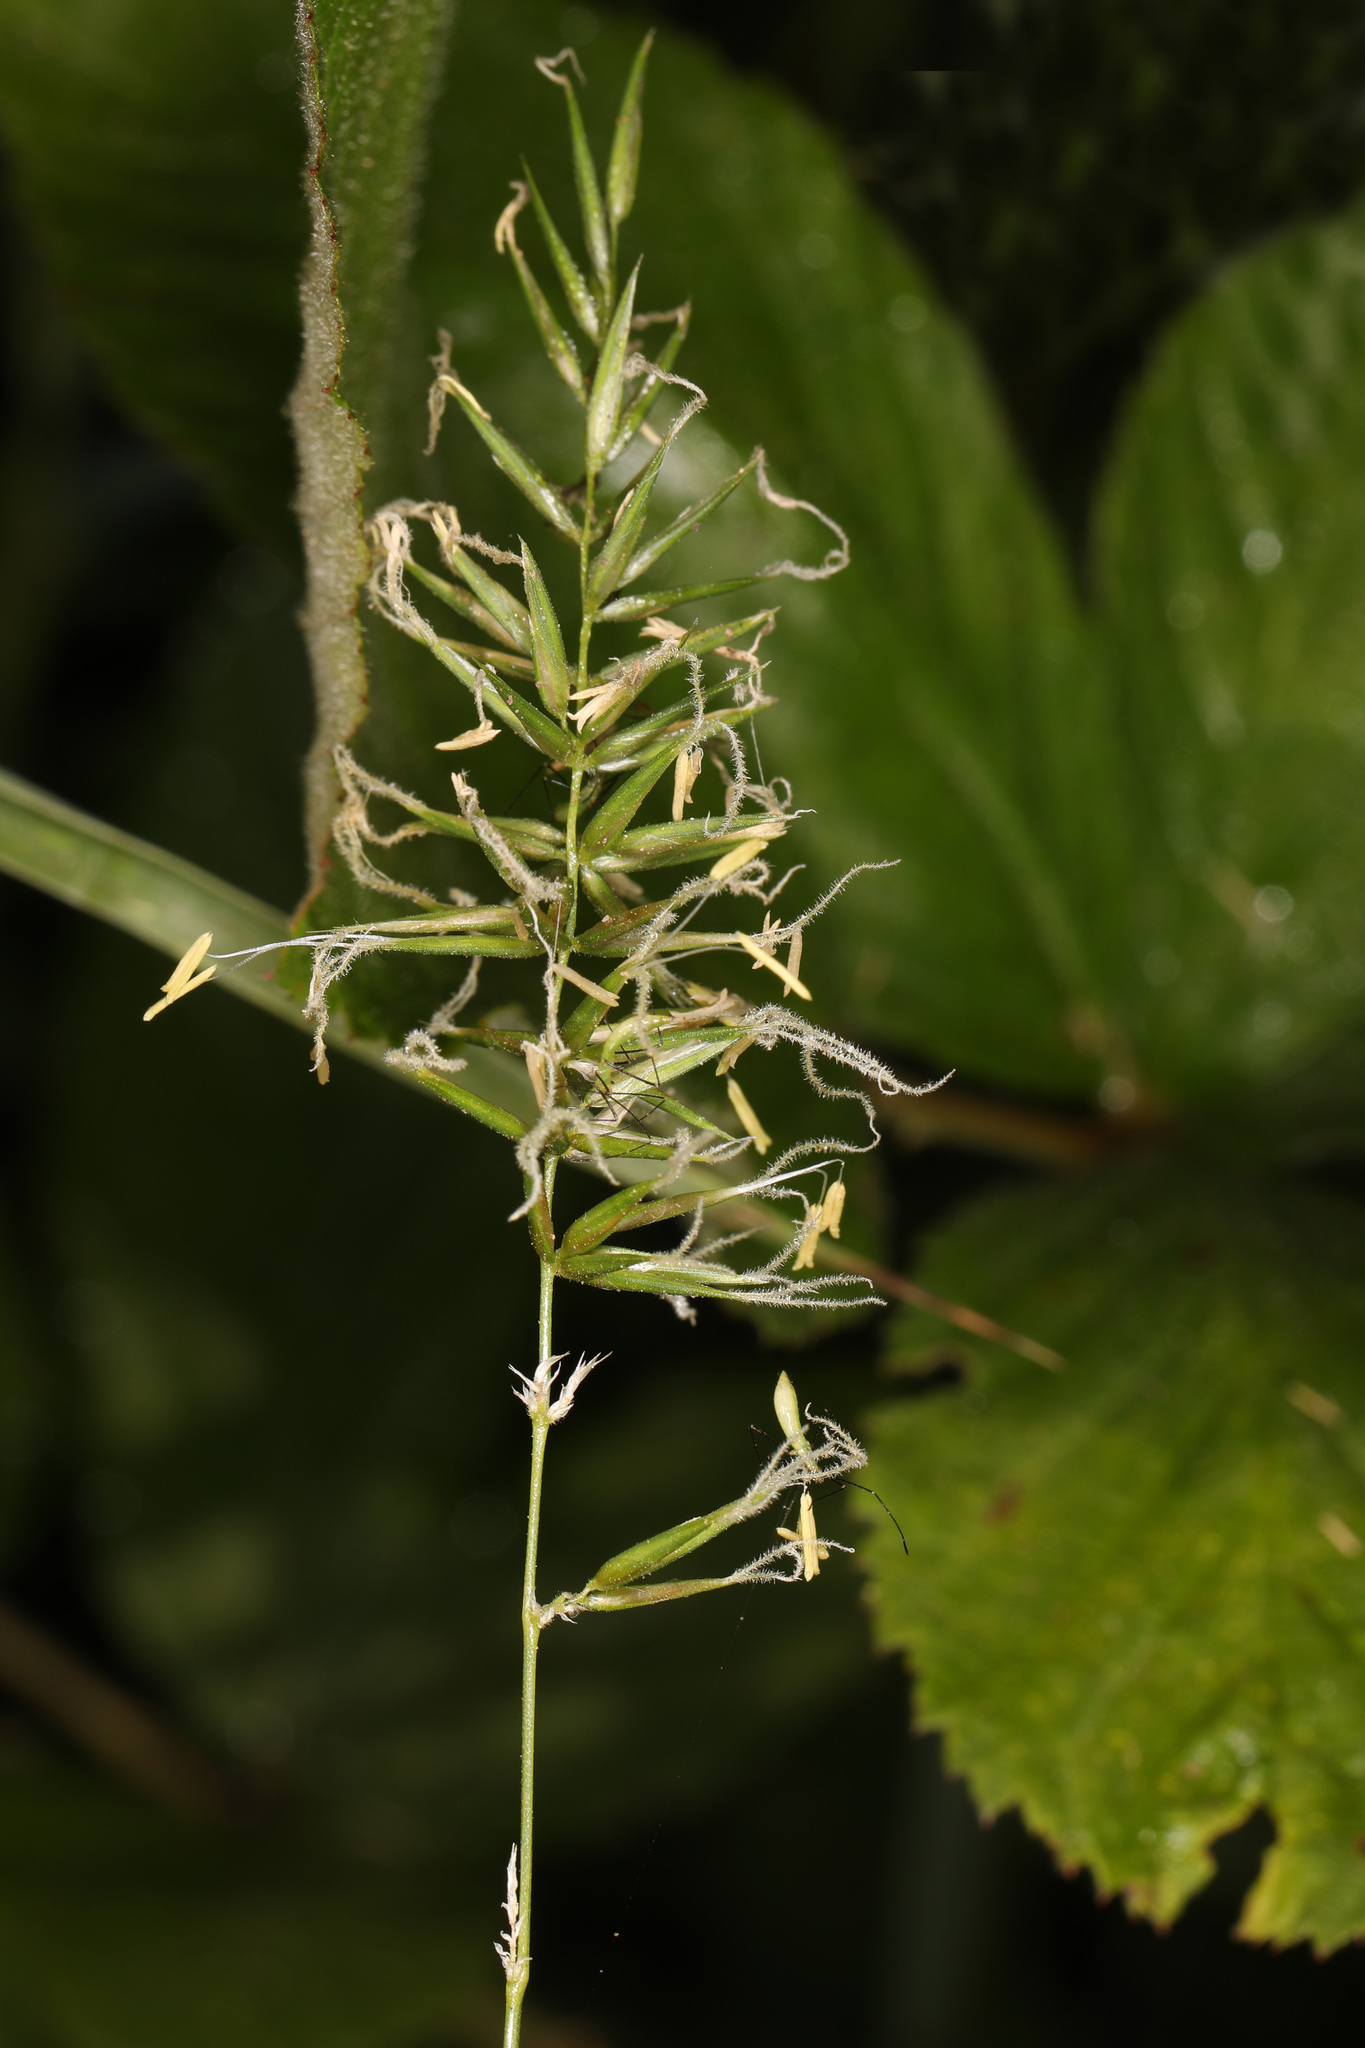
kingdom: Plantae
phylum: Tracheophyta
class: Liliopsida
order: Poales
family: Poaceae
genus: Anthoxanthum
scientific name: Anthoxanthum odoratum
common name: Sweet vernalgrass
